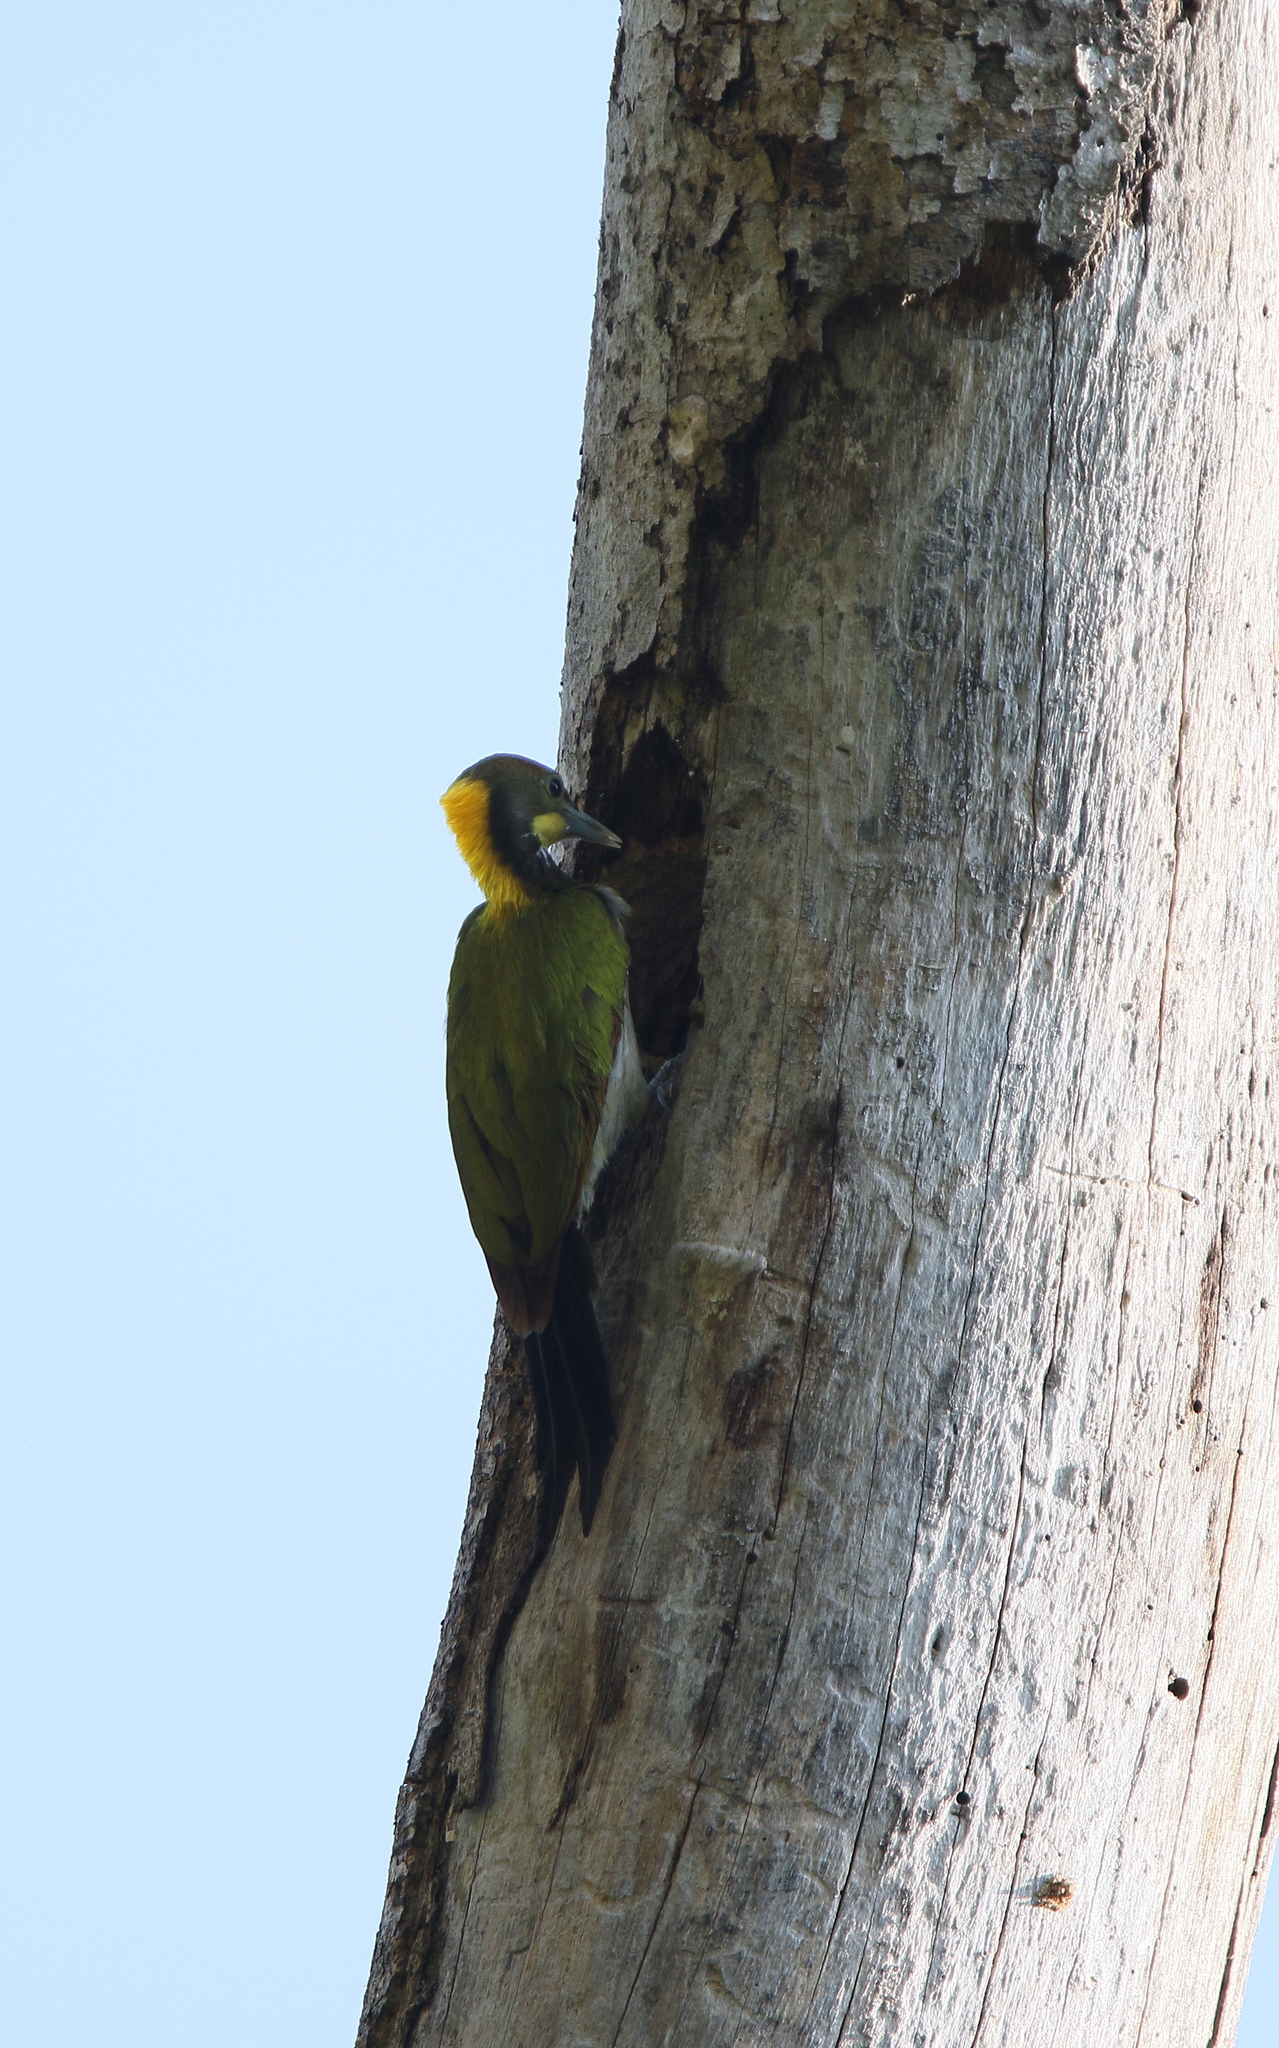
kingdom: Animalia
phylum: Chordata
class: Aves
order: Piciformes
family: Picidae
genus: Chrysophlegma
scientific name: Chrysophlegma flavinucha
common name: Greater yellownape
